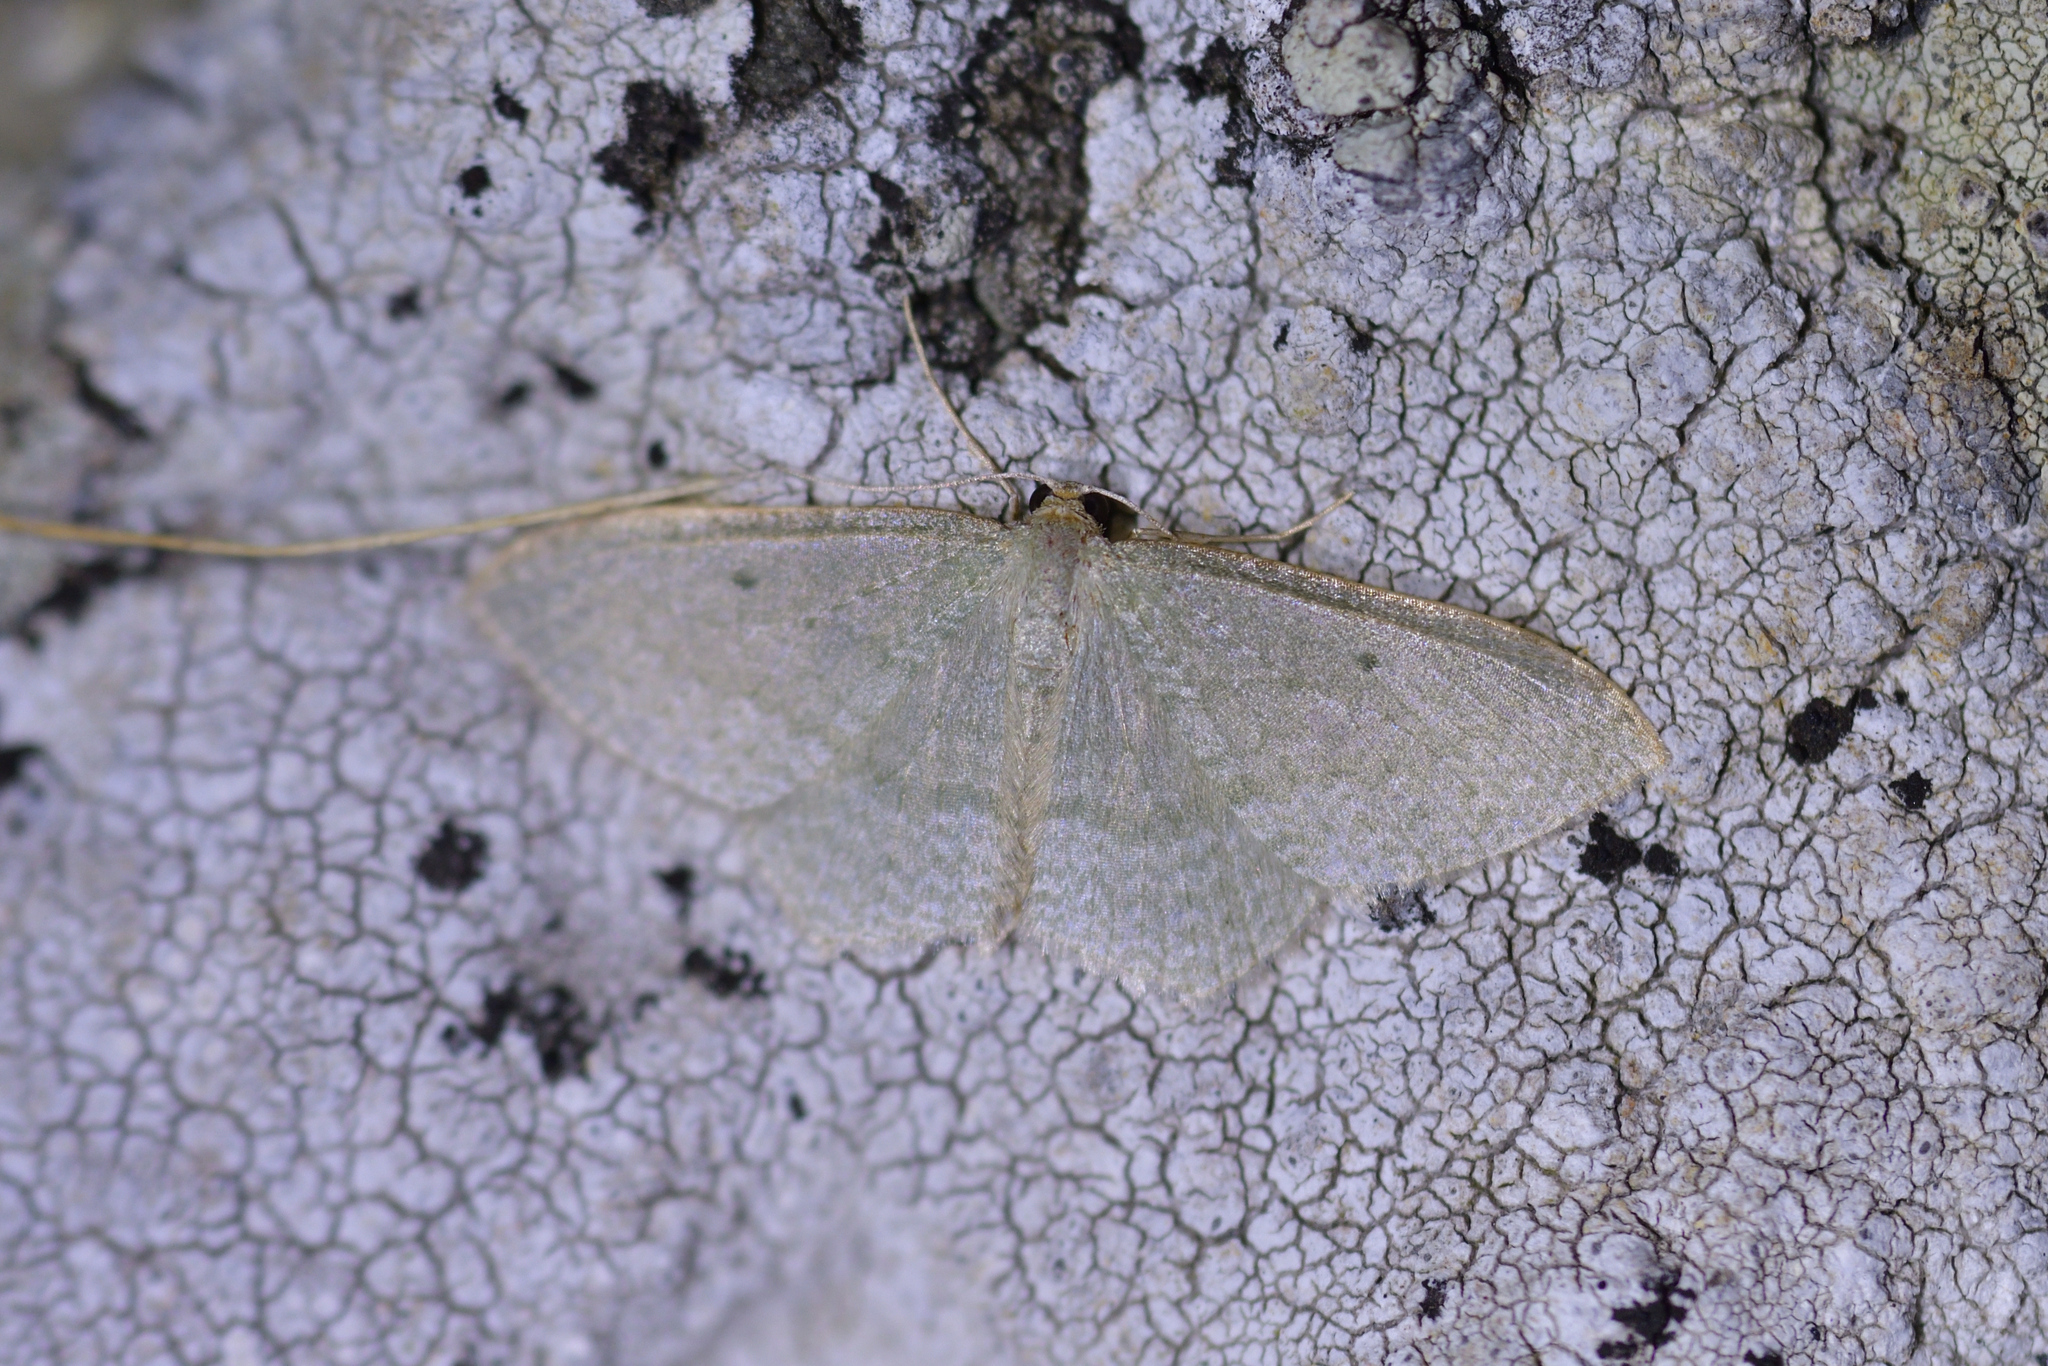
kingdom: Animalia
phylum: Arthropoda
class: Insecta
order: Lepidoptera
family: Geometridae
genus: Poecilasthena
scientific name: Poecilasthena pulchraria
